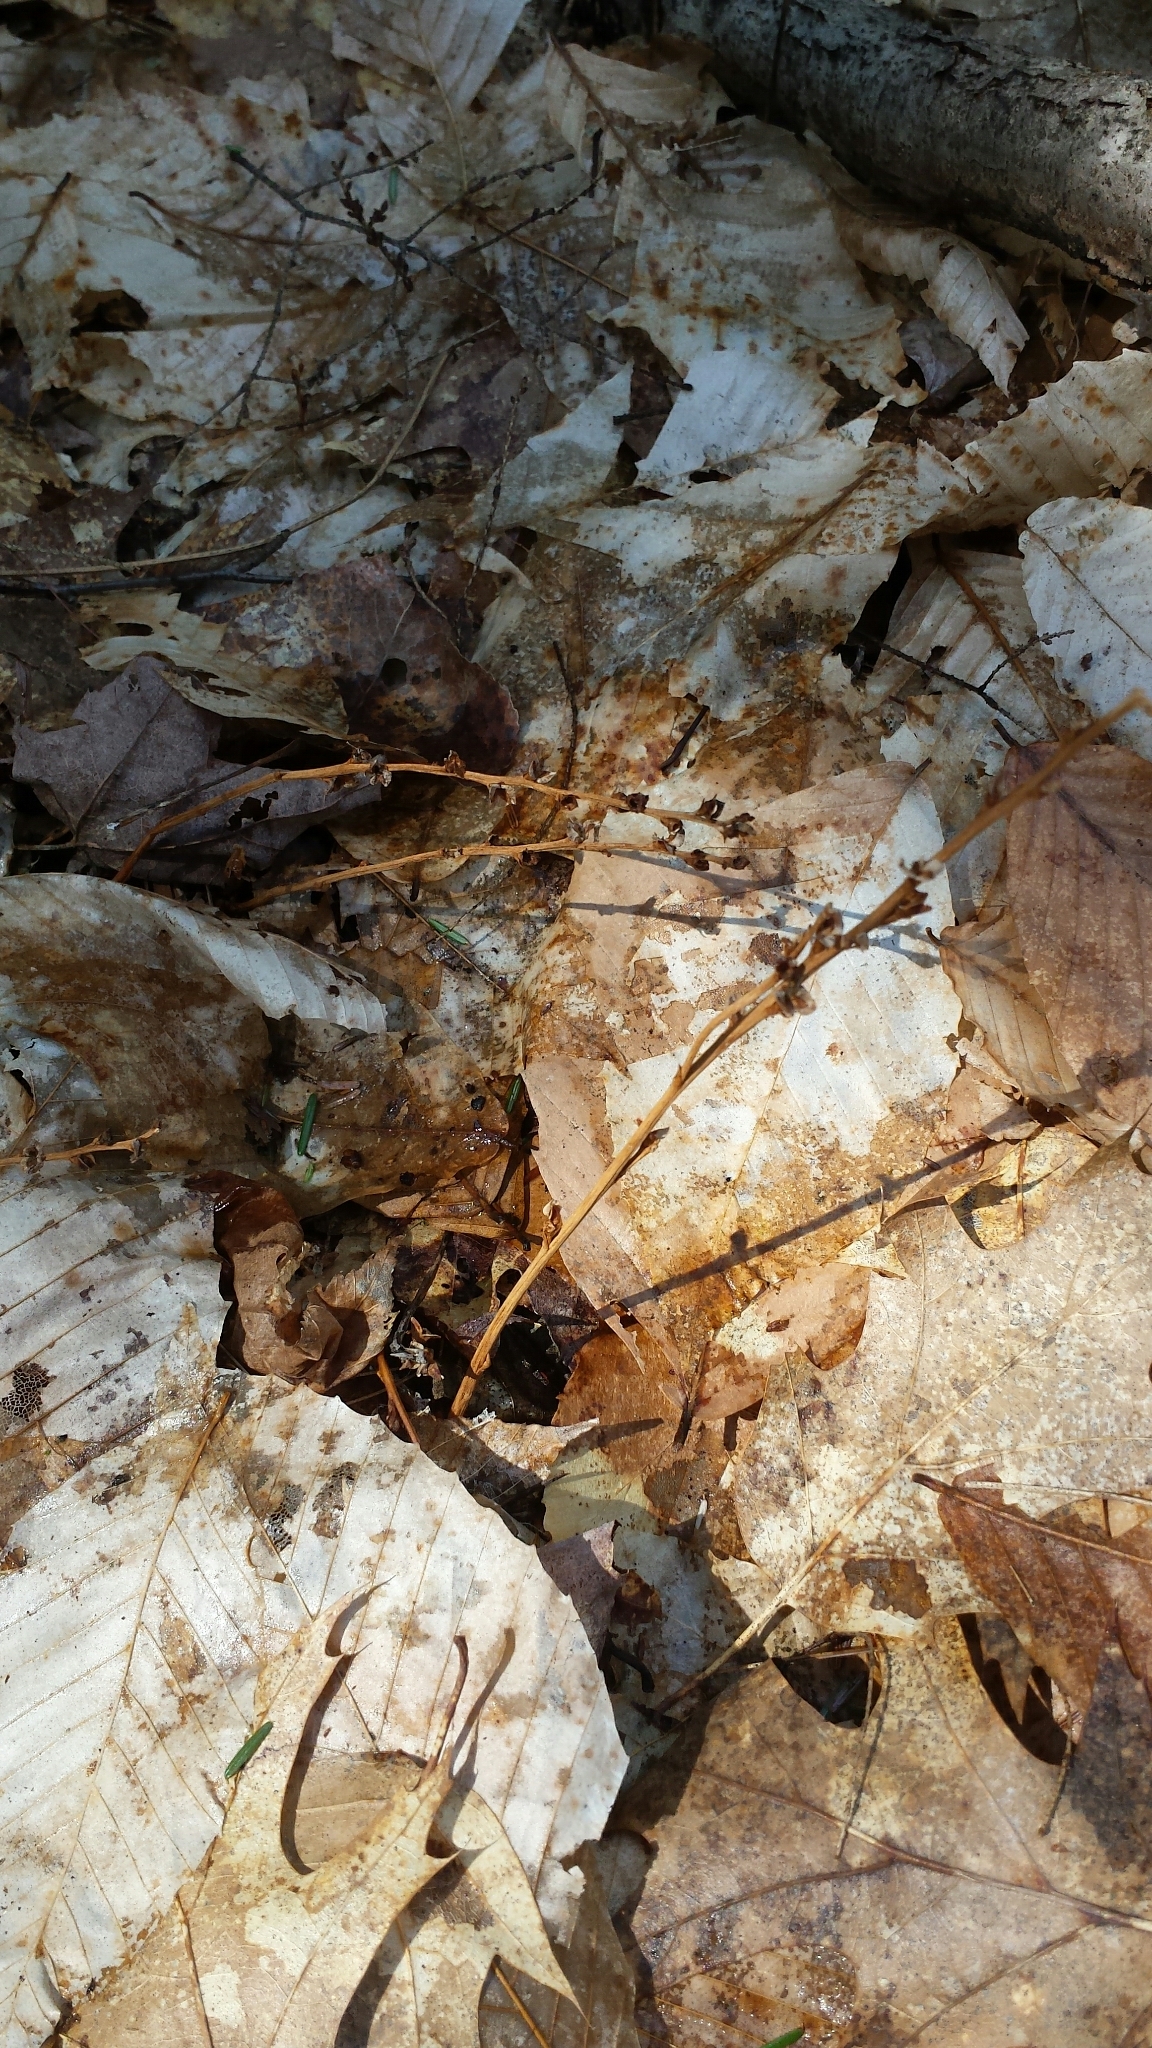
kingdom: Plantae
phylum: Tracheophyta
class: Magnoliopsida
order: Lamiales
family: Orobanchaceae
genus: Epifagus
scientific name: Epifagus virginiana
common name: Beechdrops
